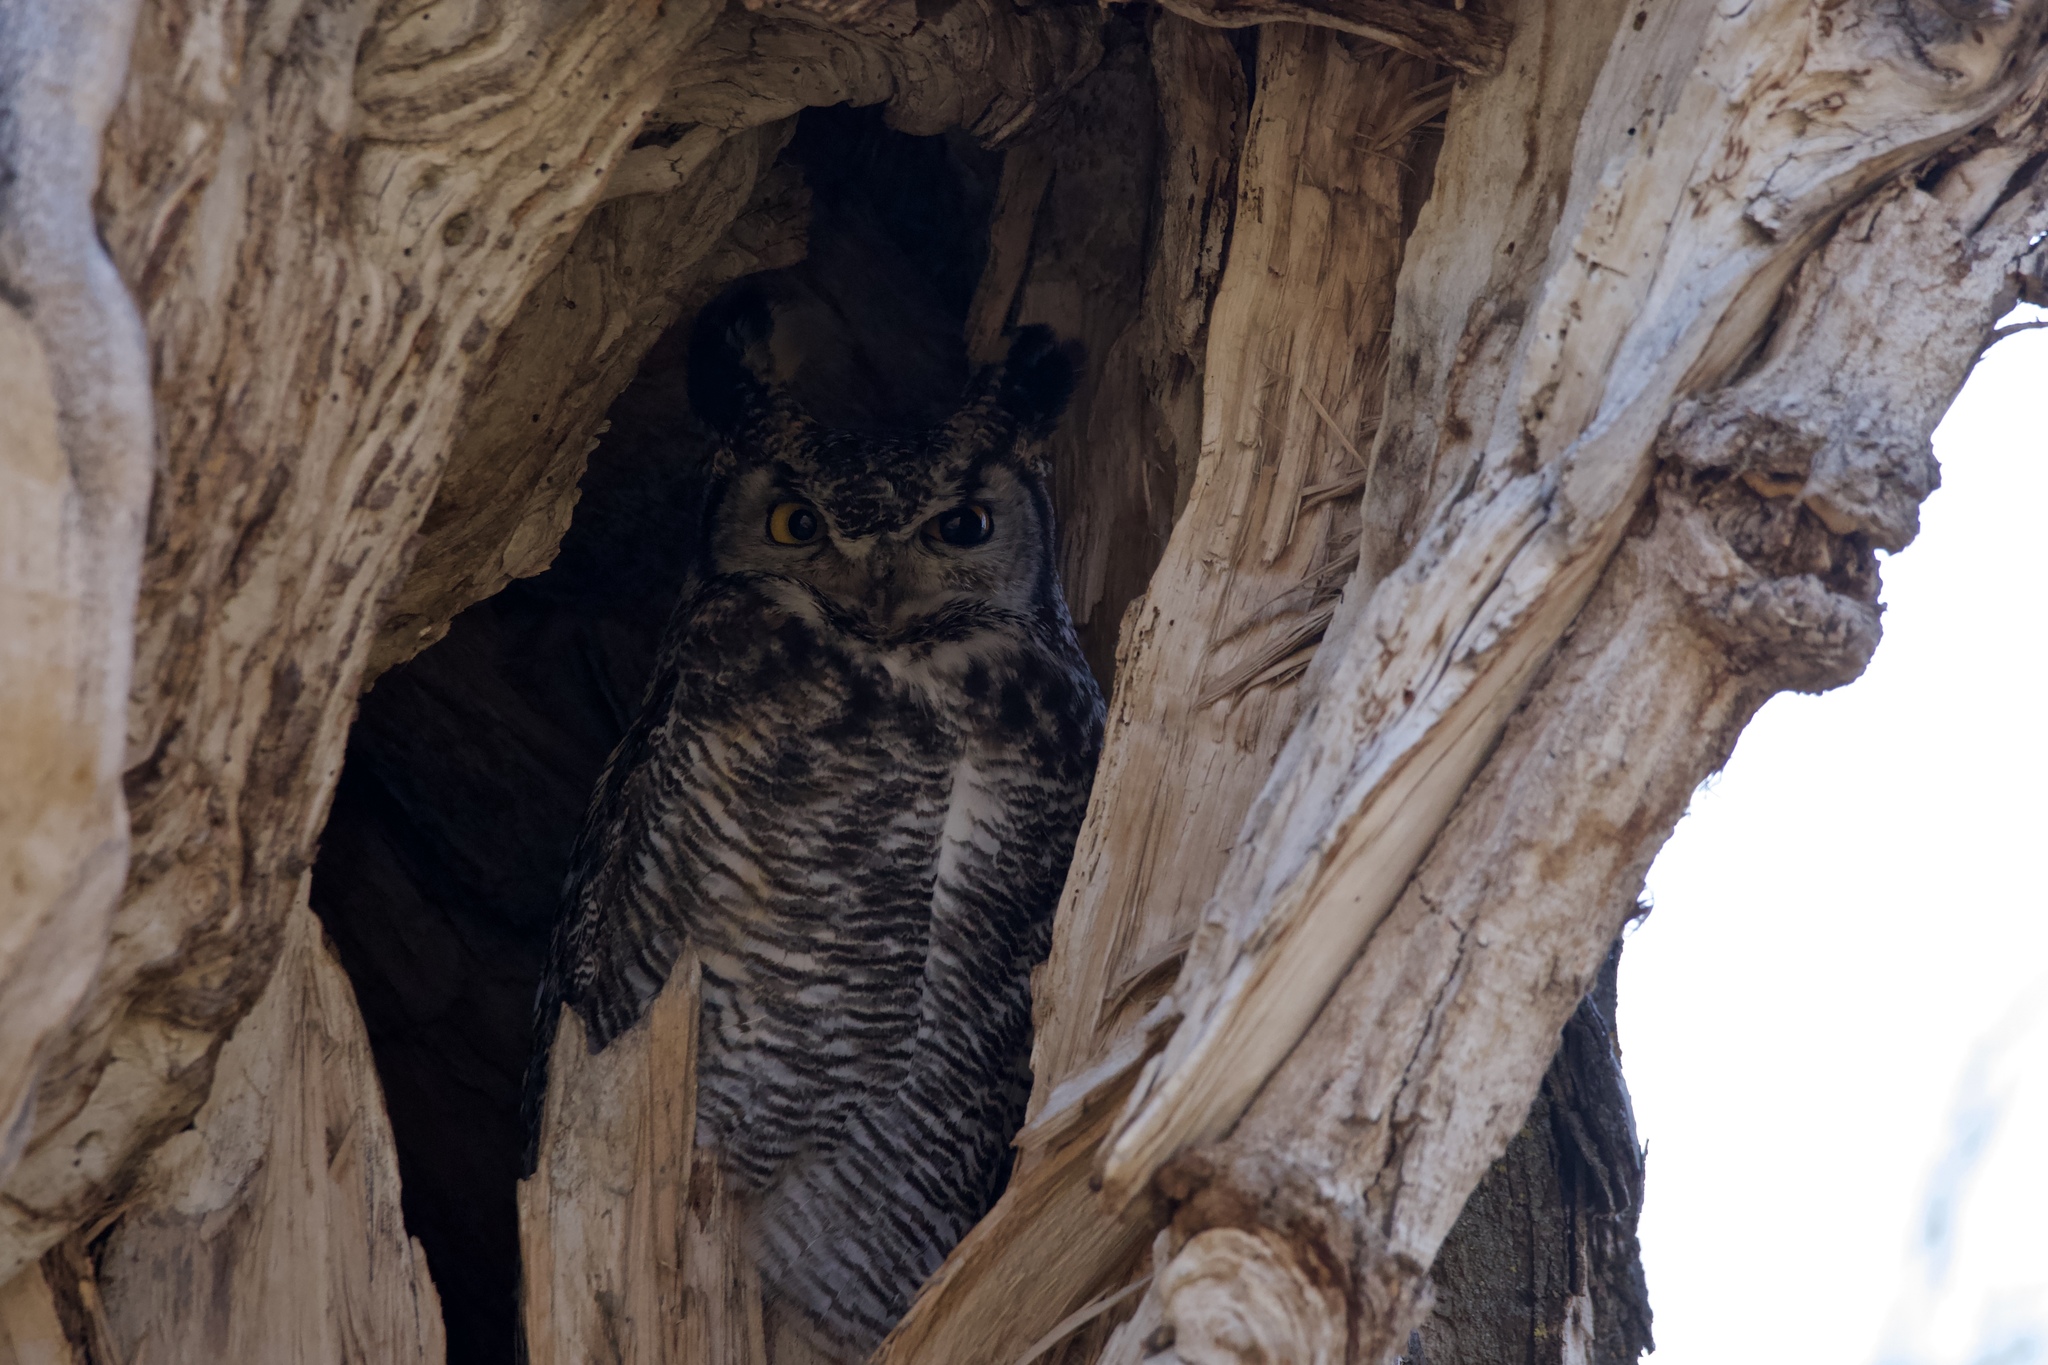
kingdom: Animalia
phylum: Chordata
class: Aves
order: Strigiformes
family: Strigidae
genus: Bubo
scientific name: Bubo virginianus
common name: Great horned owl
